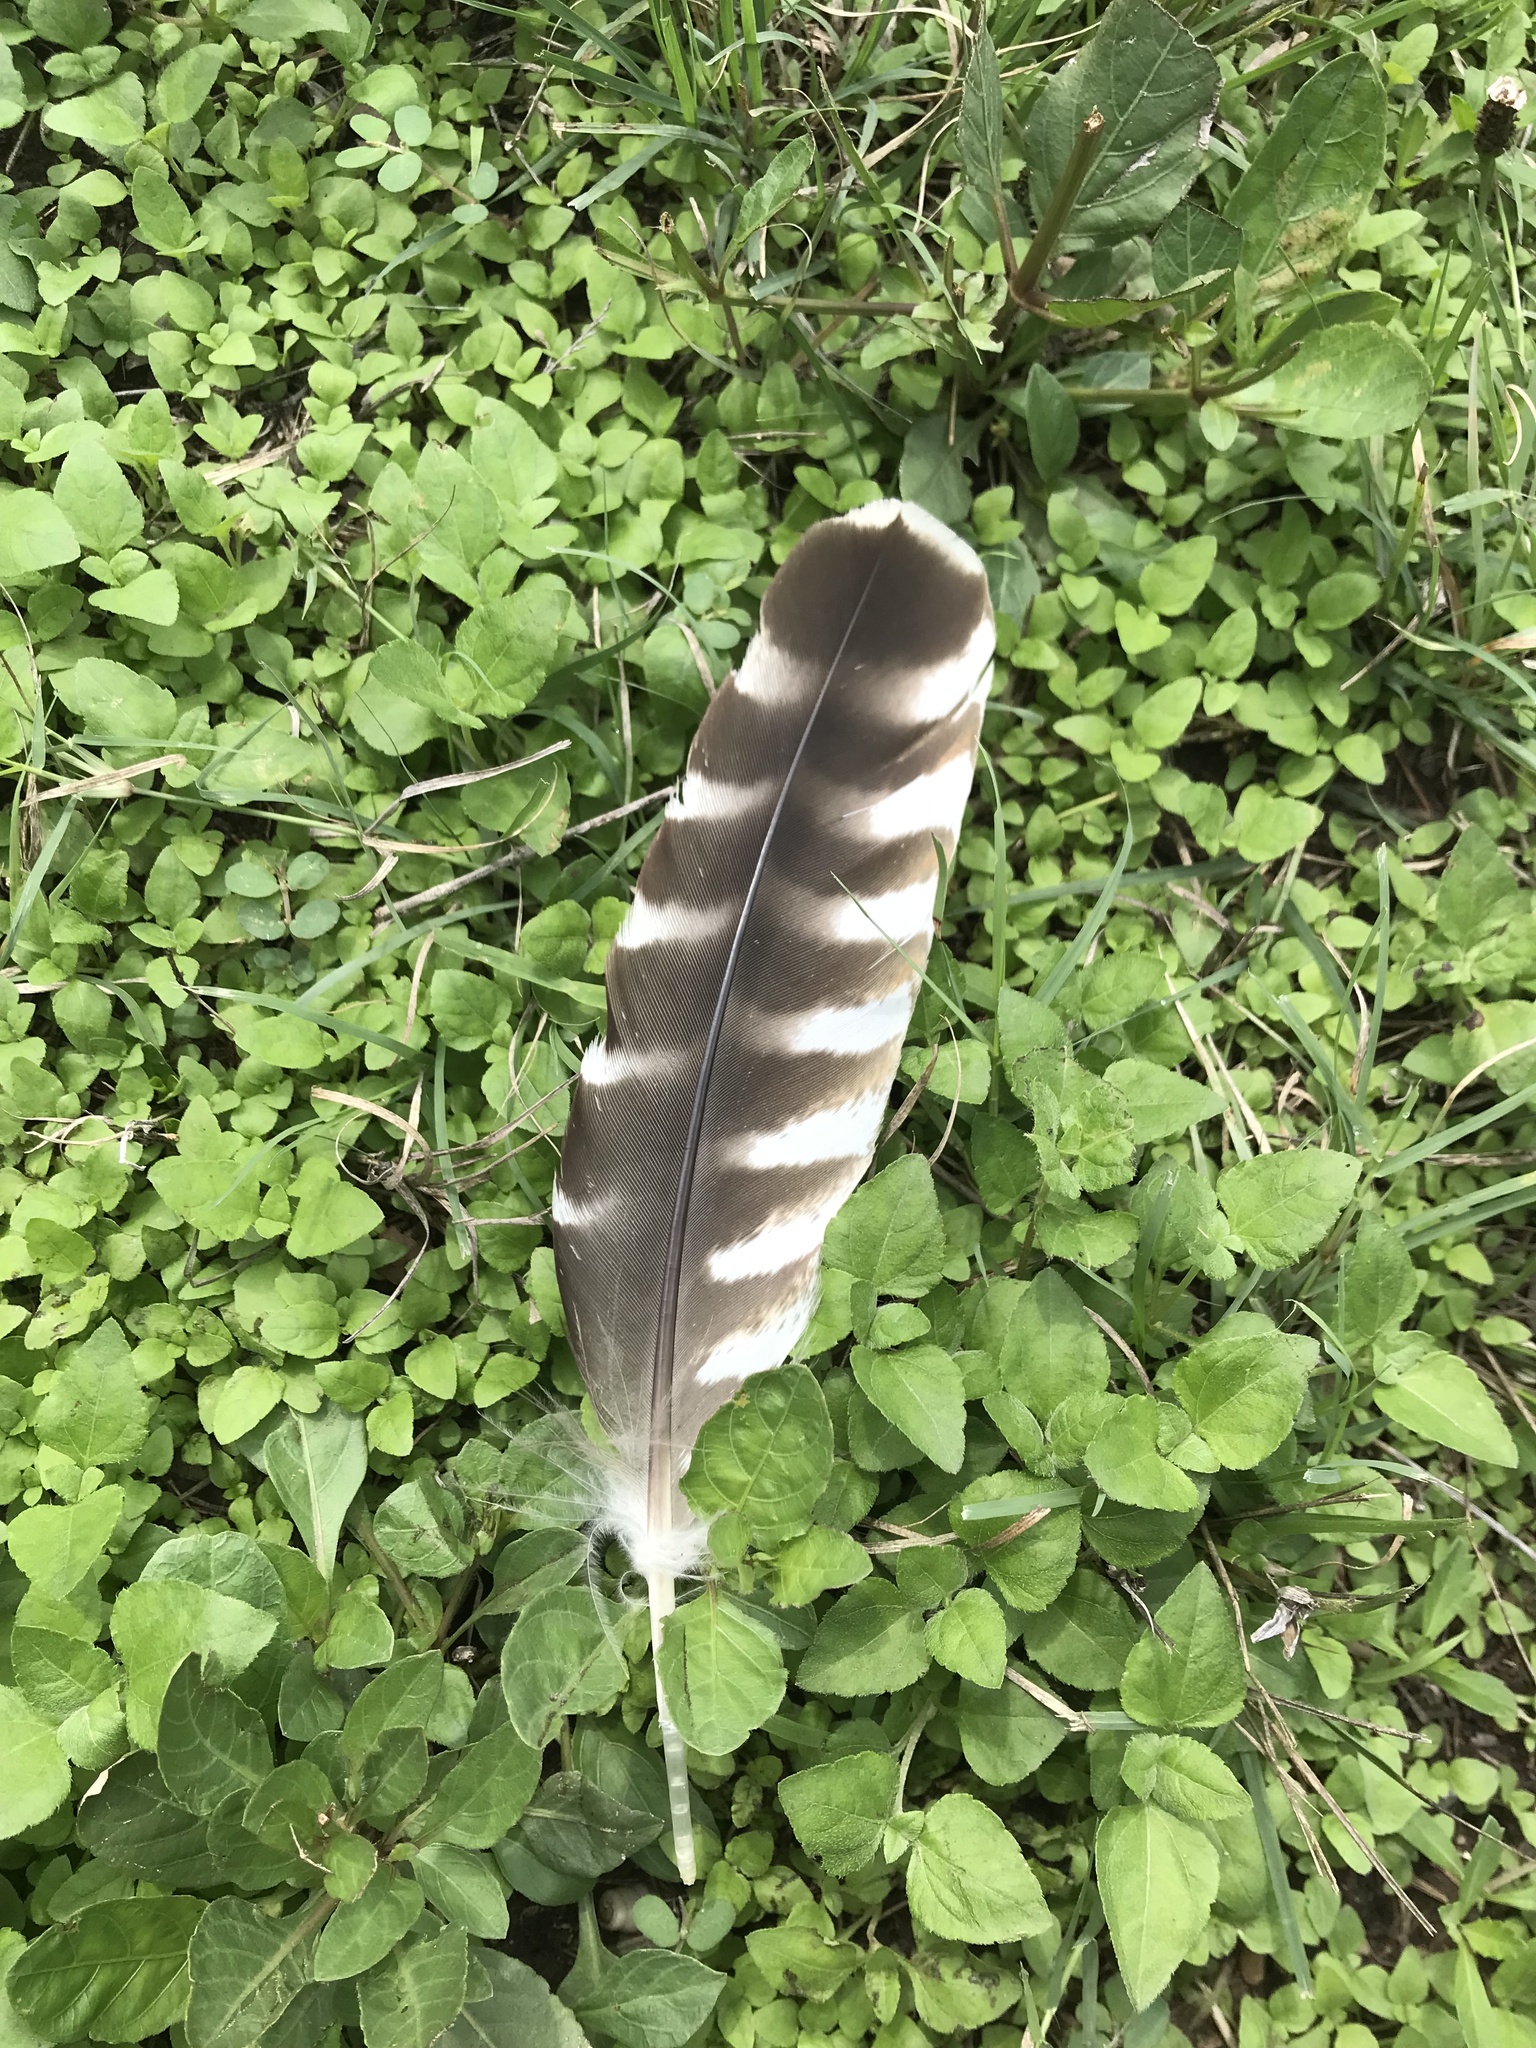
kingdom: Animalia
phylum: Chordata
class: Aves
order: Accipitriformes
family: Accipitridae
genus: Buteo
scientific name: Buteo lineatus
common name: Red-shouldered hawk
